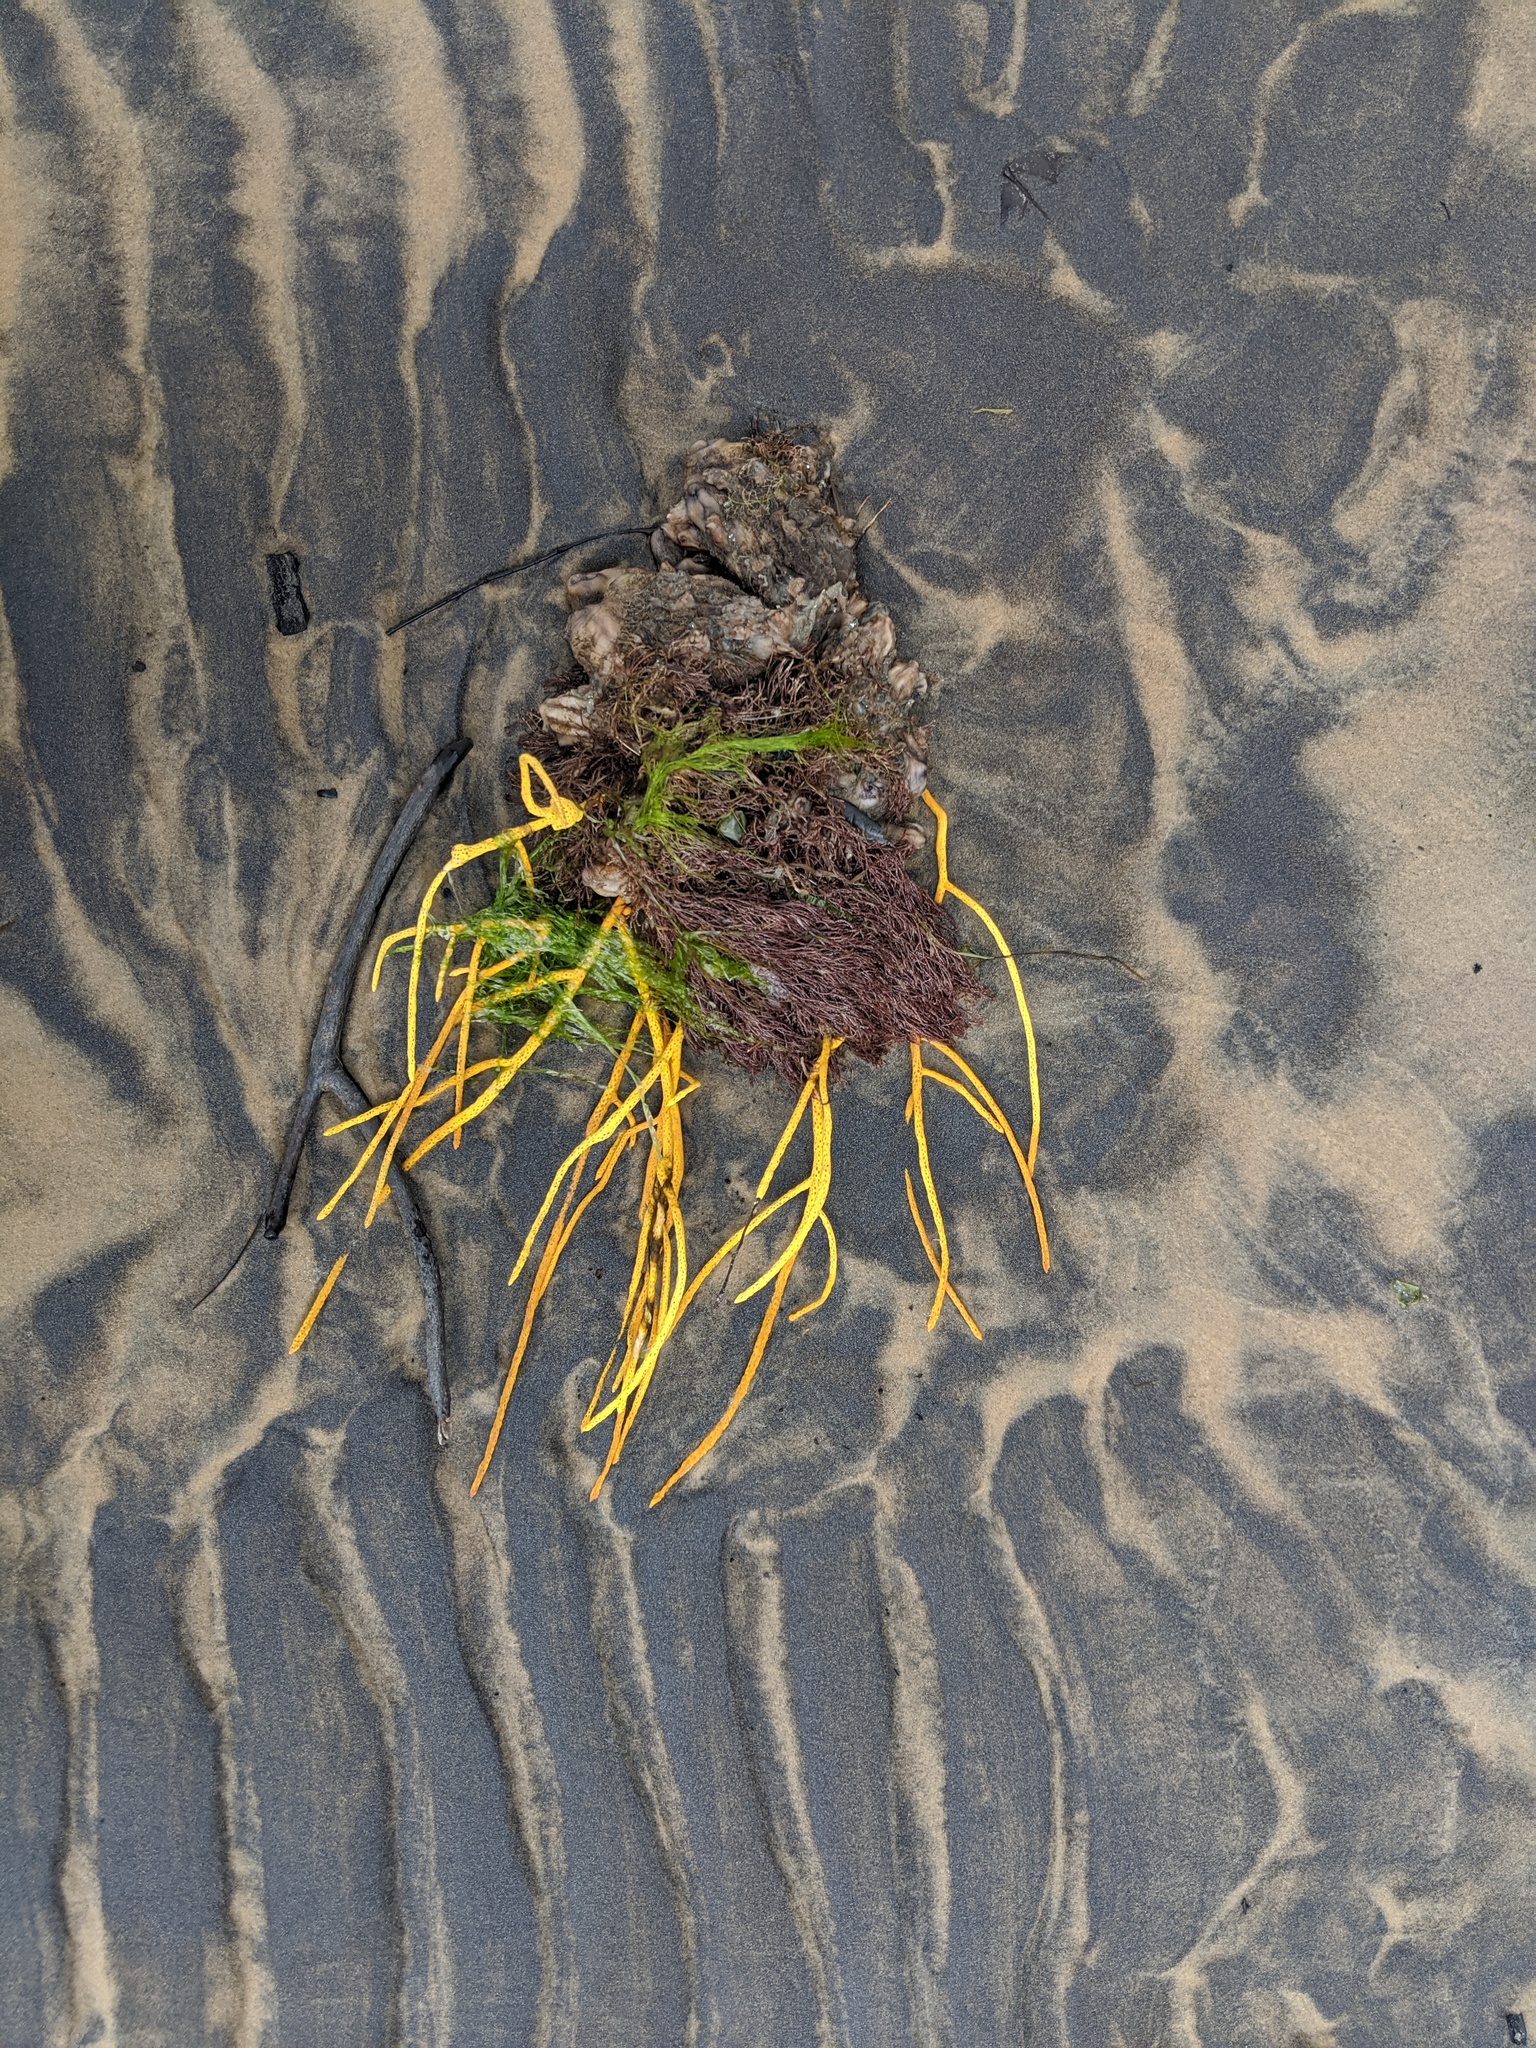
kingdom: Animalia
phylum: Cnidaria
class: Anthozoa
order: Malacalcyonacea
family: Gorgoniidae
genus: Leptogorgia
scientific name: Leptogorgia virgulata
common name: Colorful sea whip
